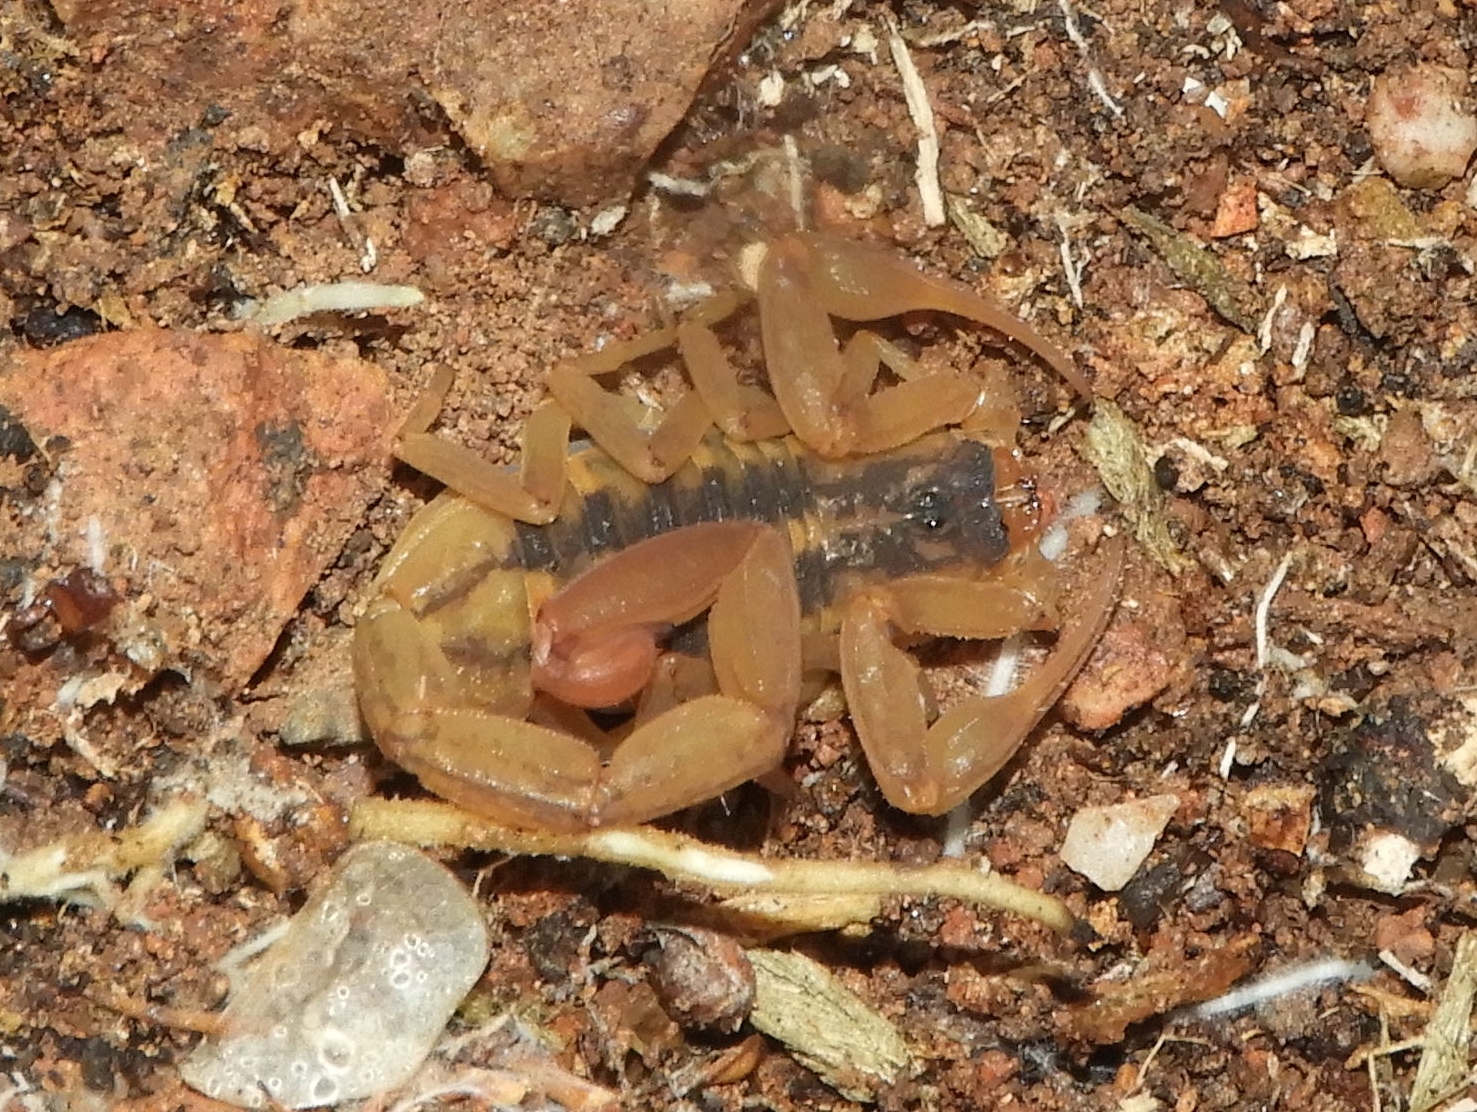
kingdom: Animalia
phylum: Arthropoda
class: Arachnida
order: Scorpiones
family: Buthidae
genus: Centruroides
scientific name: Centruroides baldazoi
